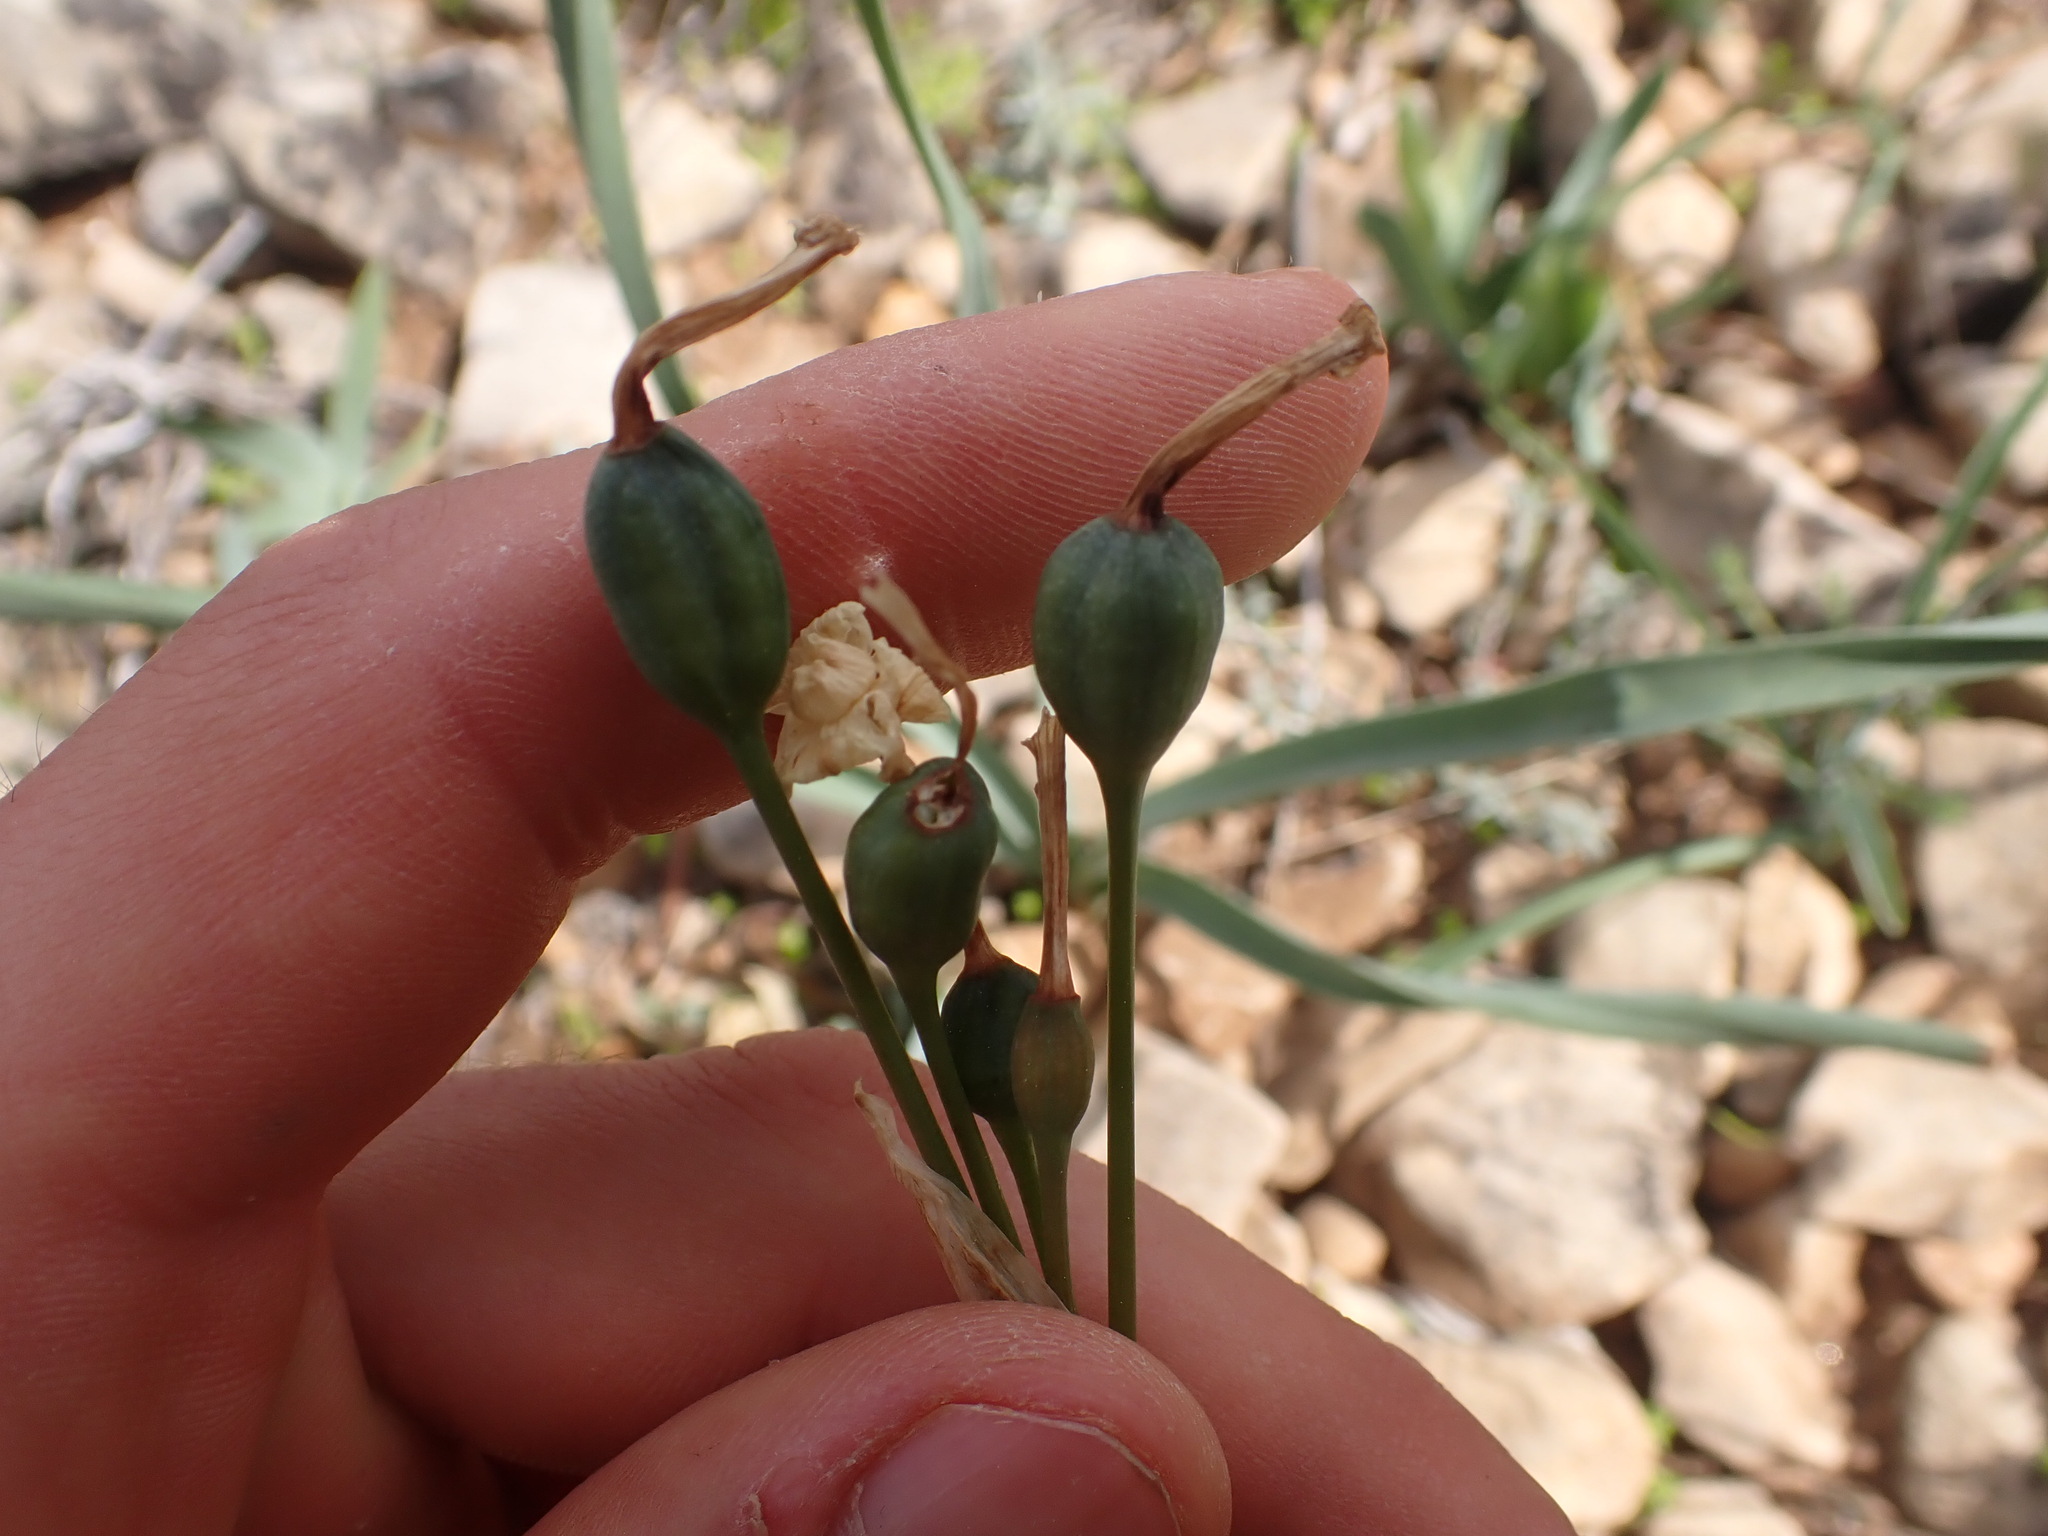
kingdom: Plantae
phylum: Tracheophyta
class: Liliopsida
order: Asparagales
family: Amaryllidaceae
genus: Narcissus
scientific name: Narcissus dubius
